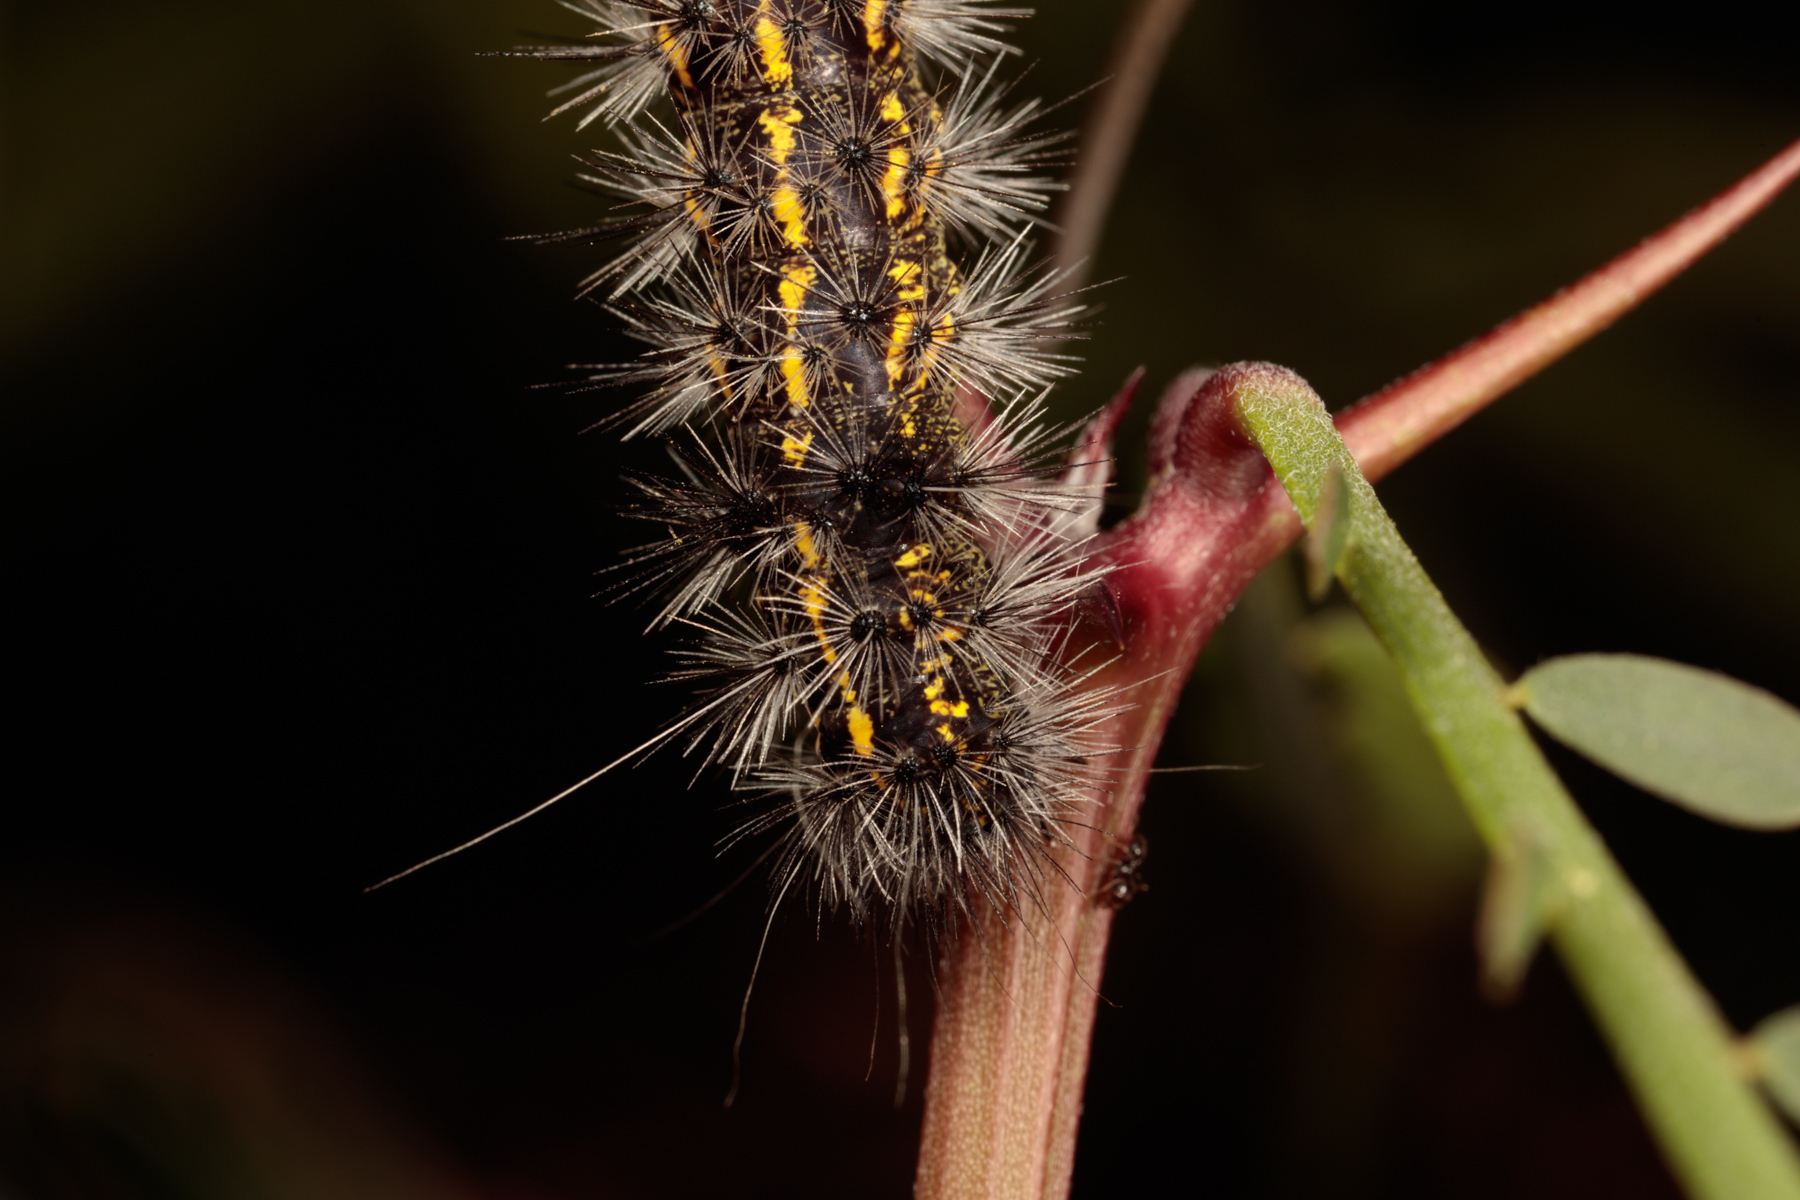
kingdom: Animalia
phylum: Arthropoda
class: Insecta
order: Lepidoptera
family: Erebidae
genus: Spilosoma
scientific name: Spilosoma dubia
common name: Dubious tiger moth
